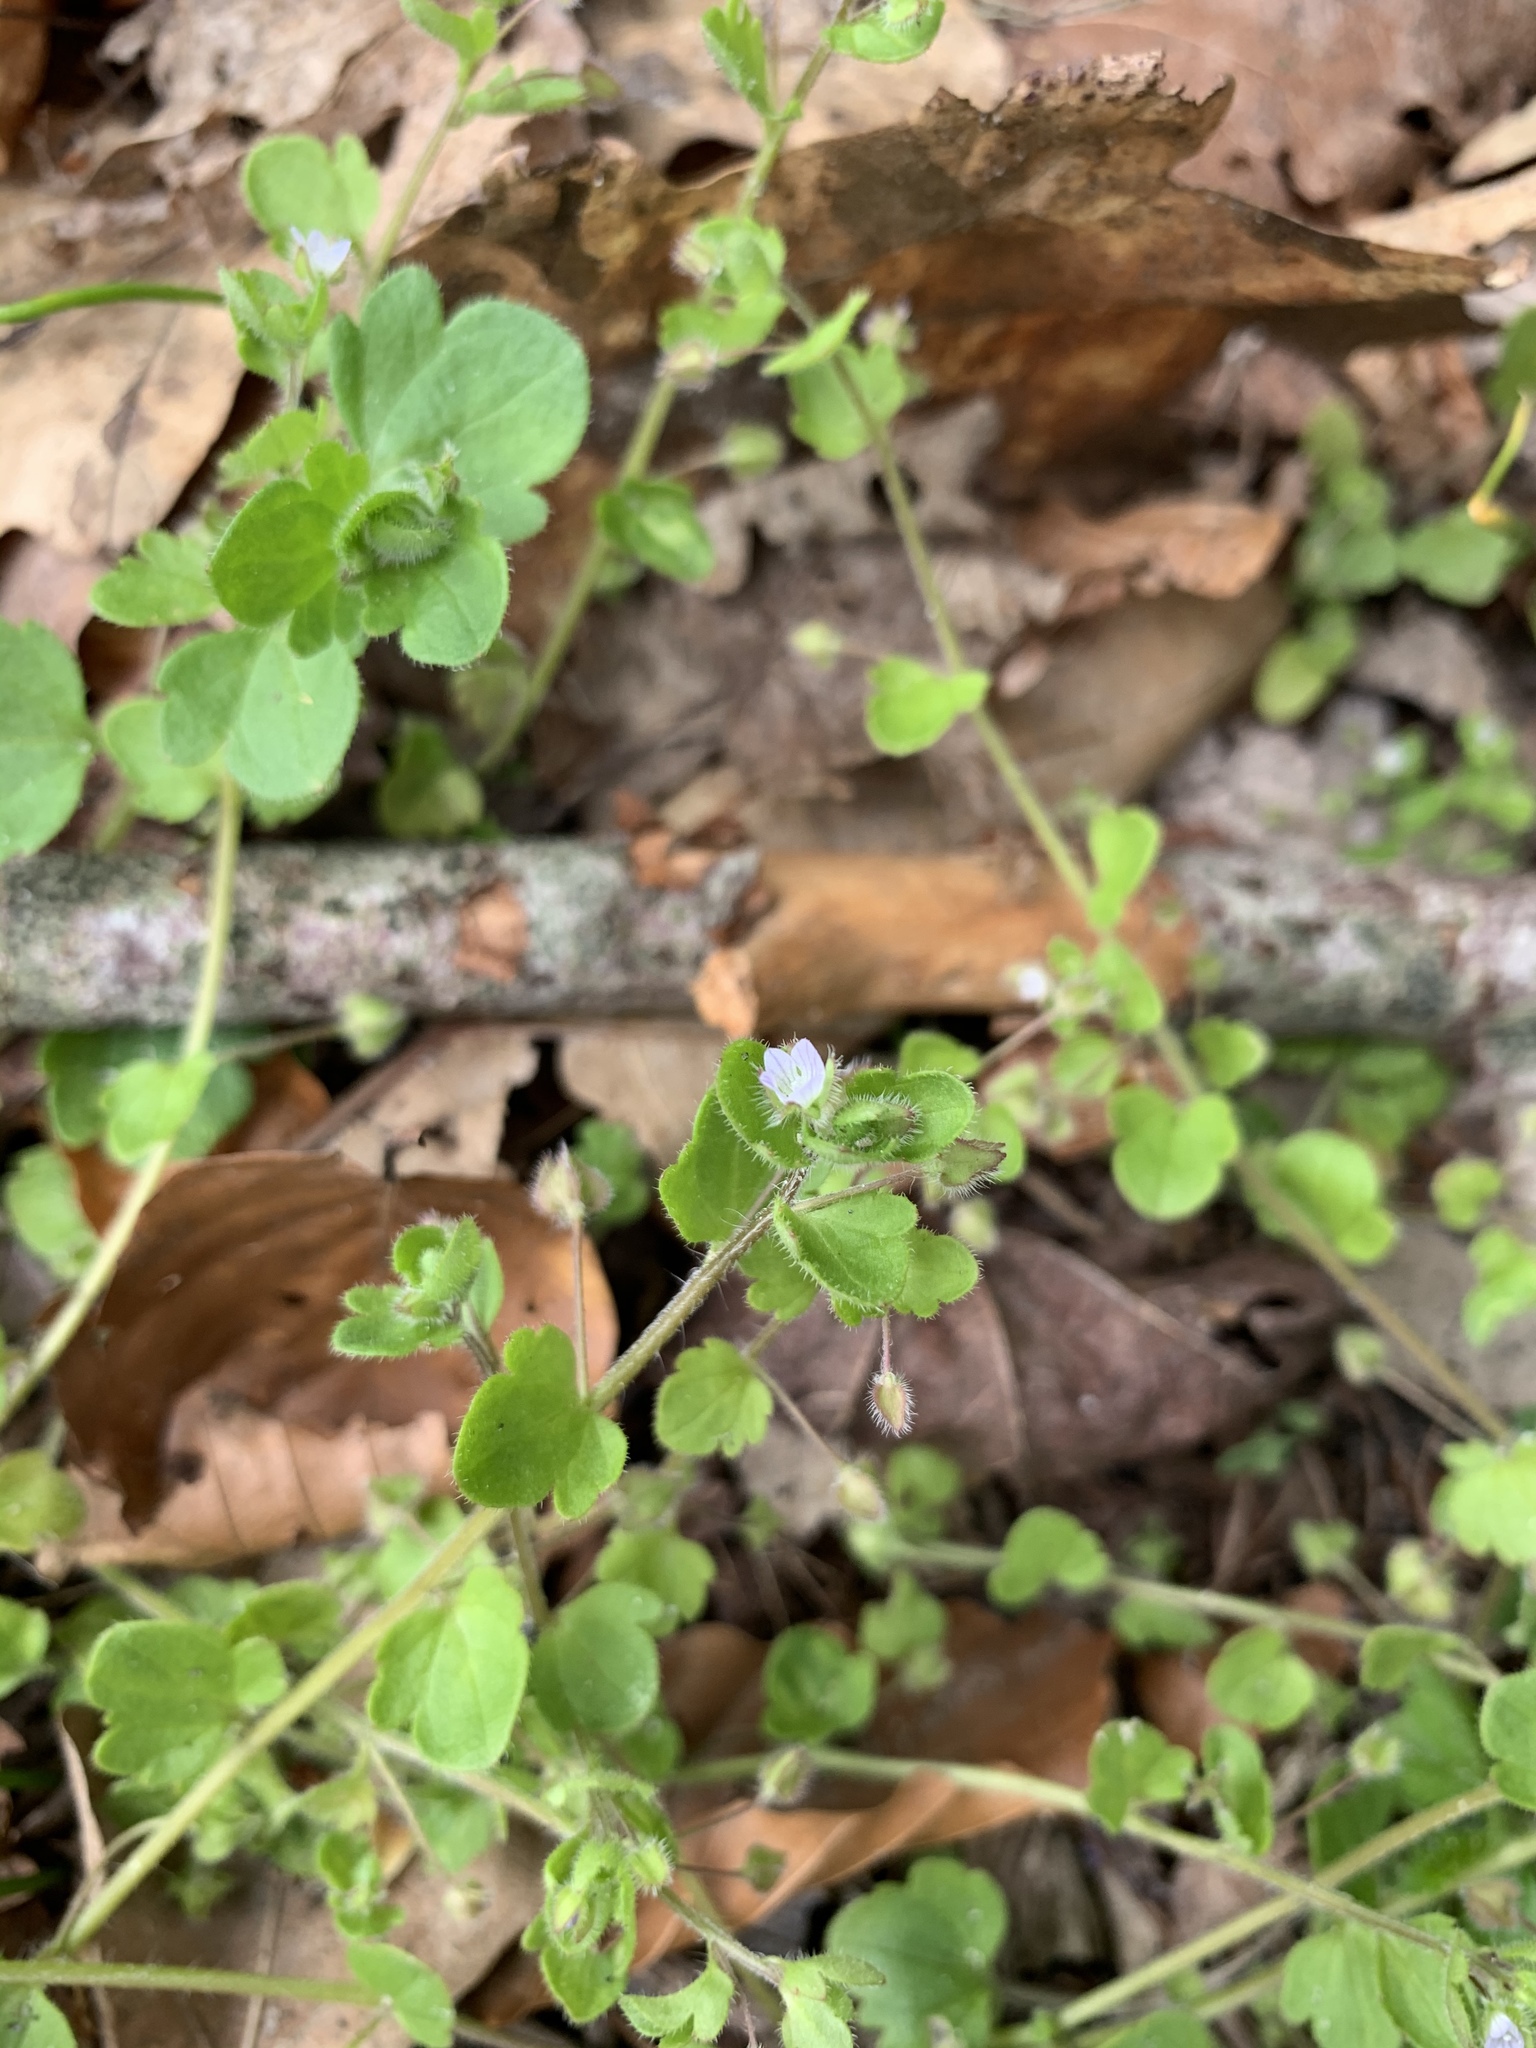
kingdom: Plantae
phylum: Tracheophyta
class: Magnoliopsida
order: Lamiales
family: Plantaginaceae
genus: Veronica
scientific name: Veronica sublobata
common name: False ivy-leaved speedwell
